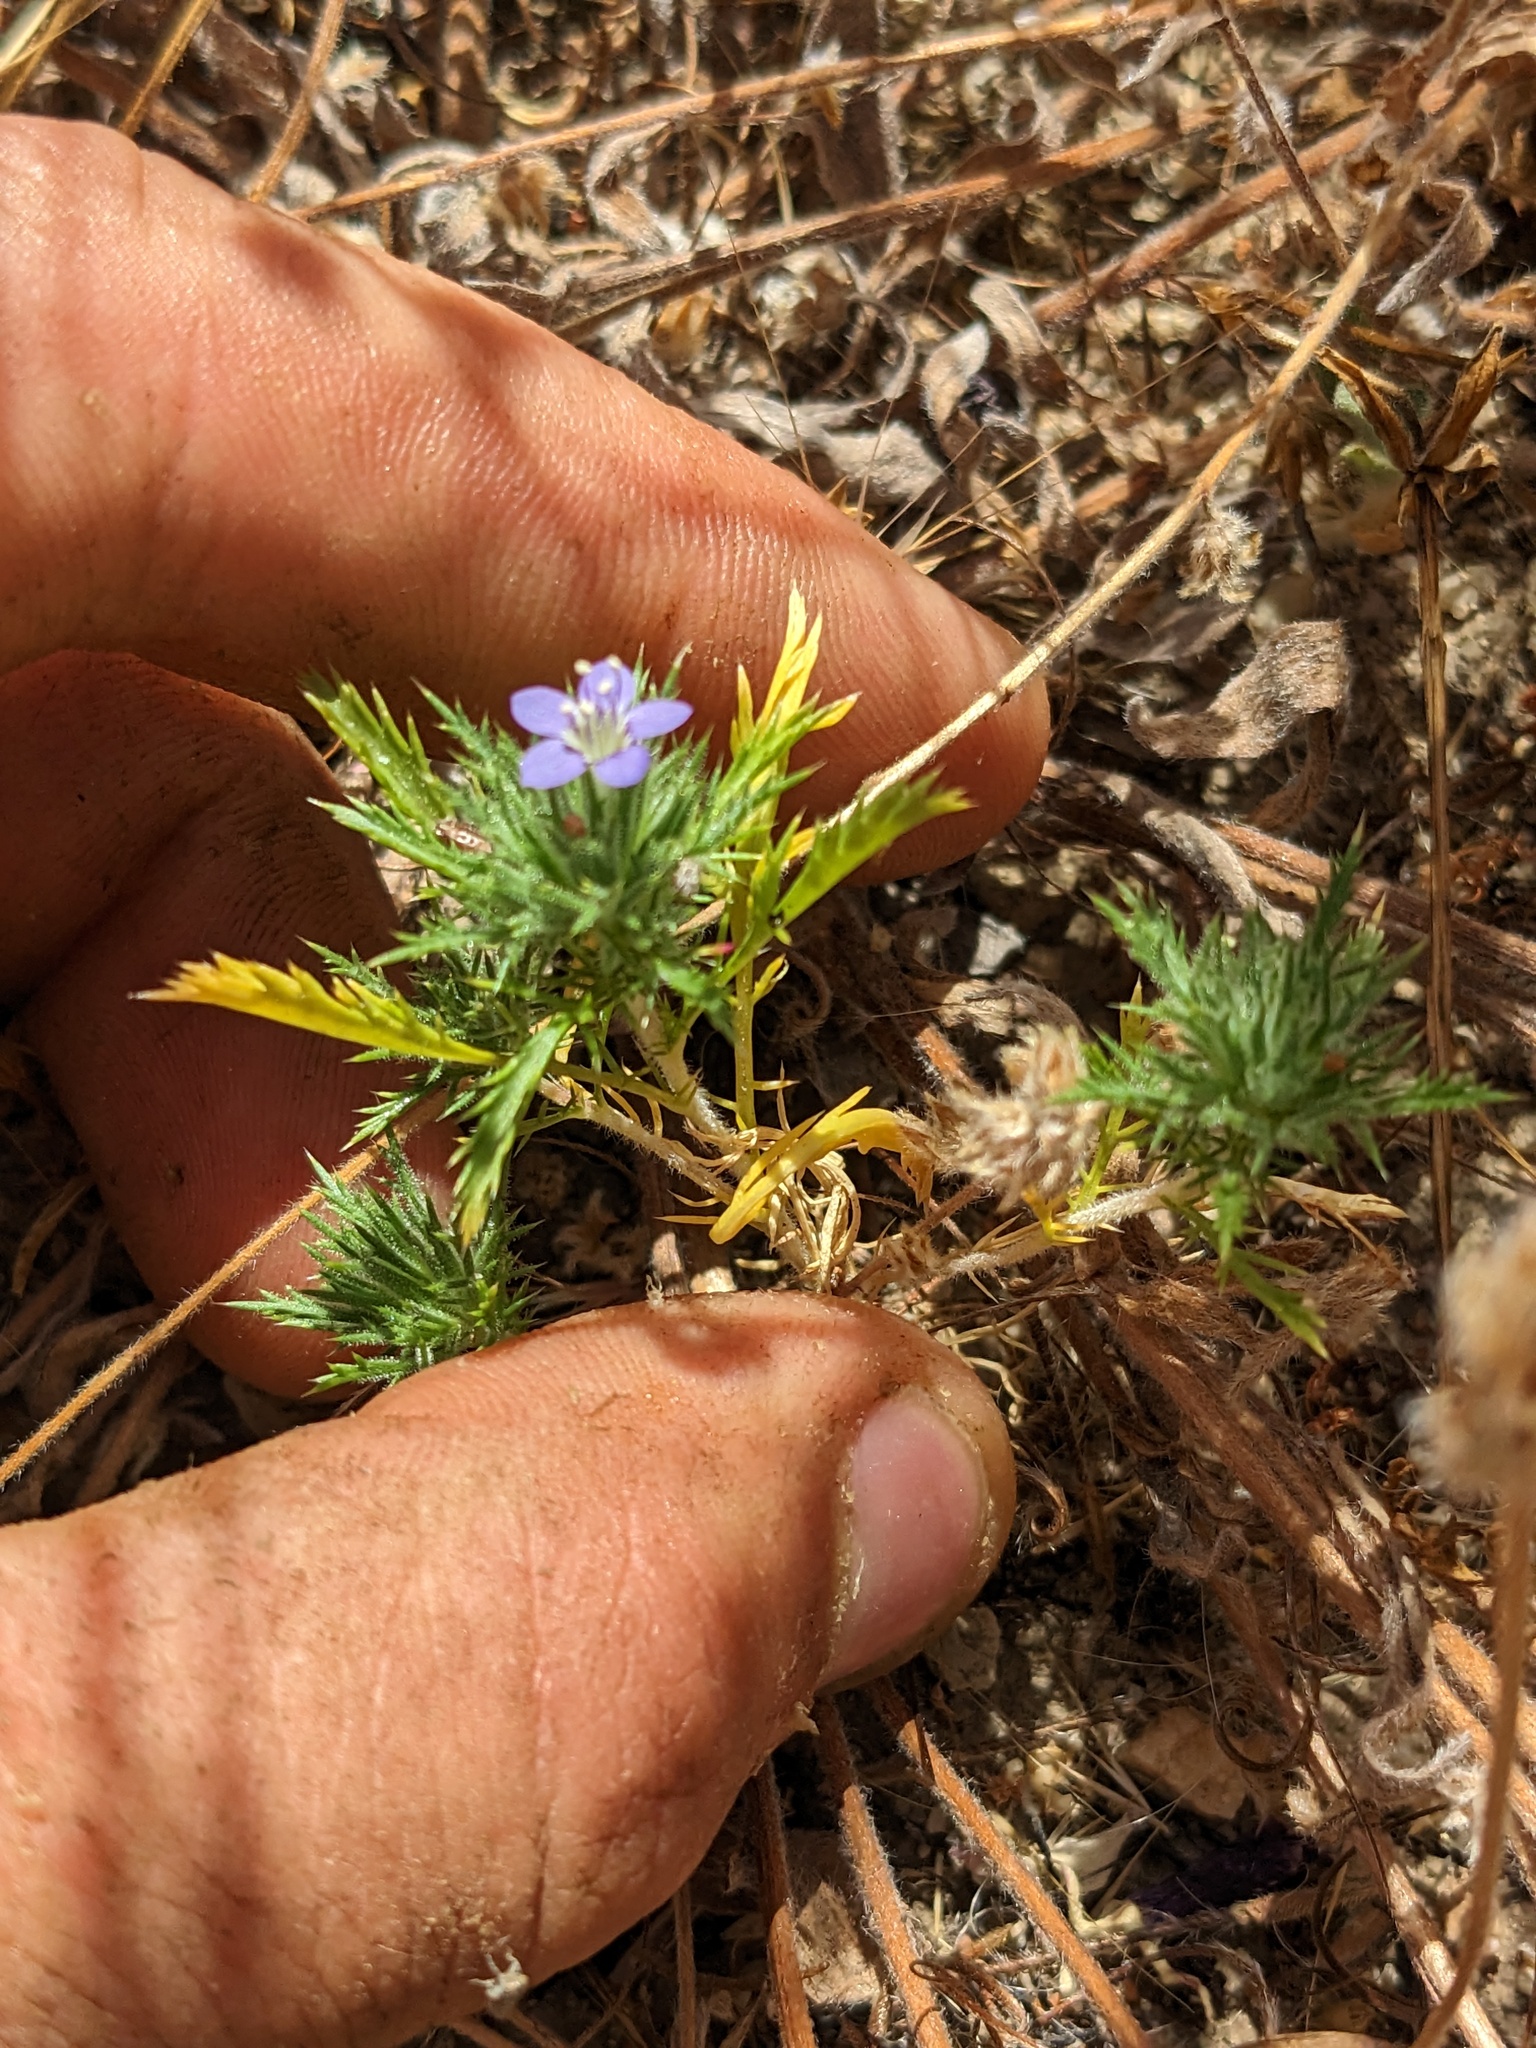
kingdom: Plantae
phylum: Tracheophyta
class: Magnoliopsida
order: Ericales
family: Polemoniaceae
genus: Navarretia
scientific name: Navarretia pubescens
